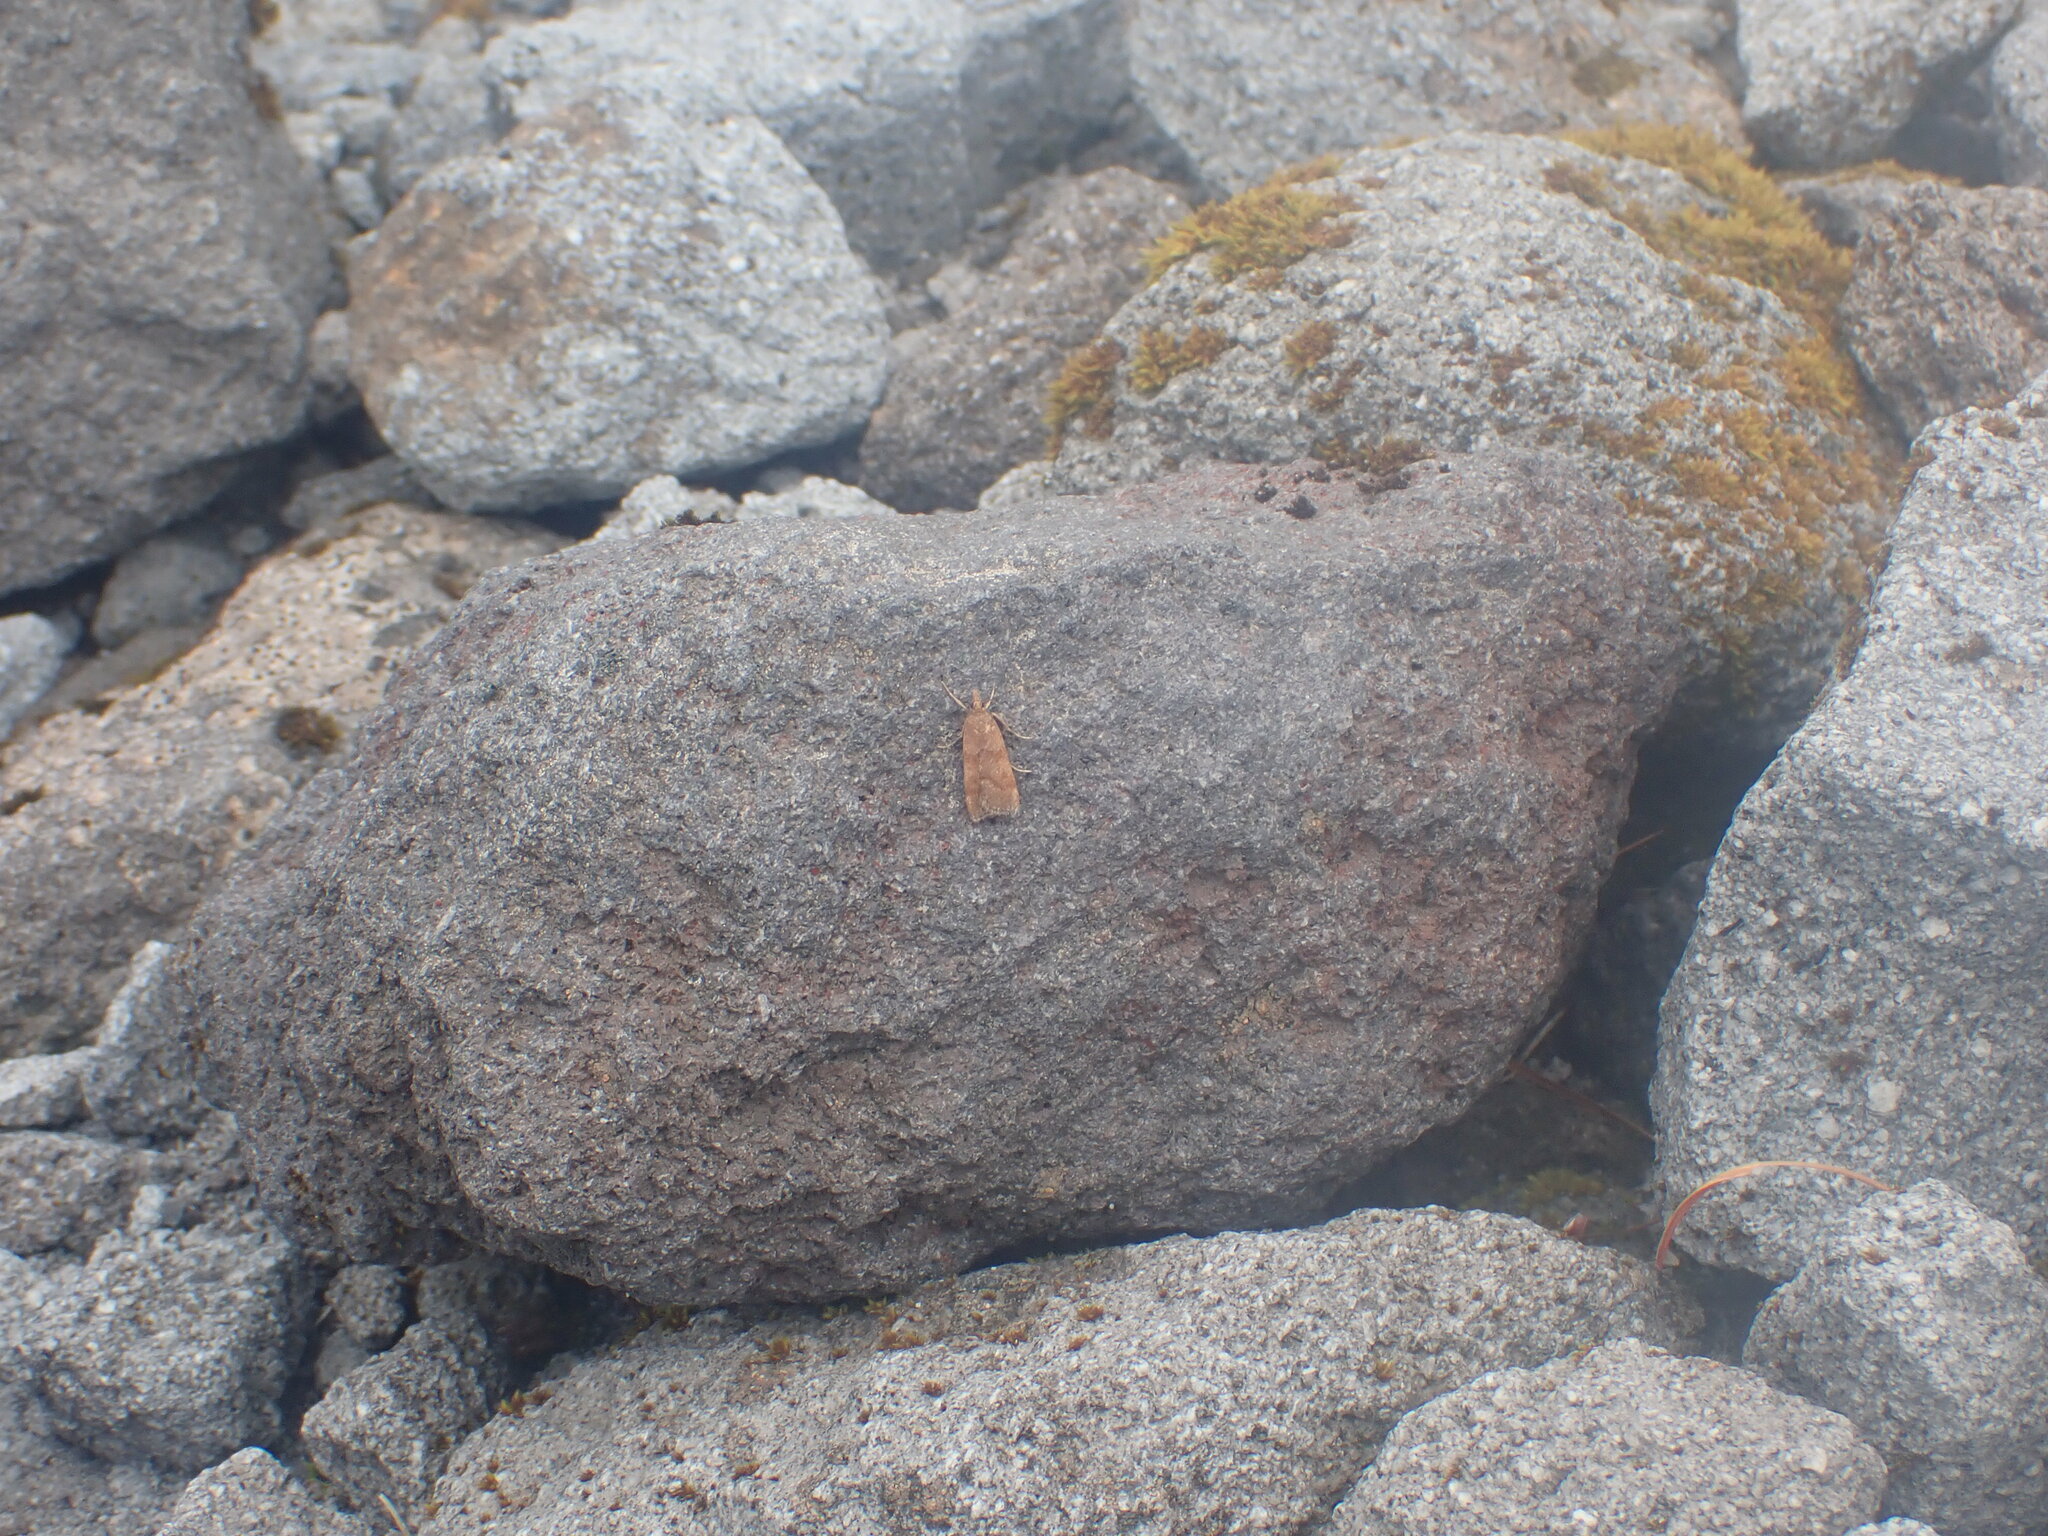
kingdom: Animalia
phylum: Arthropoda
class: Insecta
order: Lepidoptera
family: Crambidae
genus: Eudonia
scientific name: Eudonia feredayi
